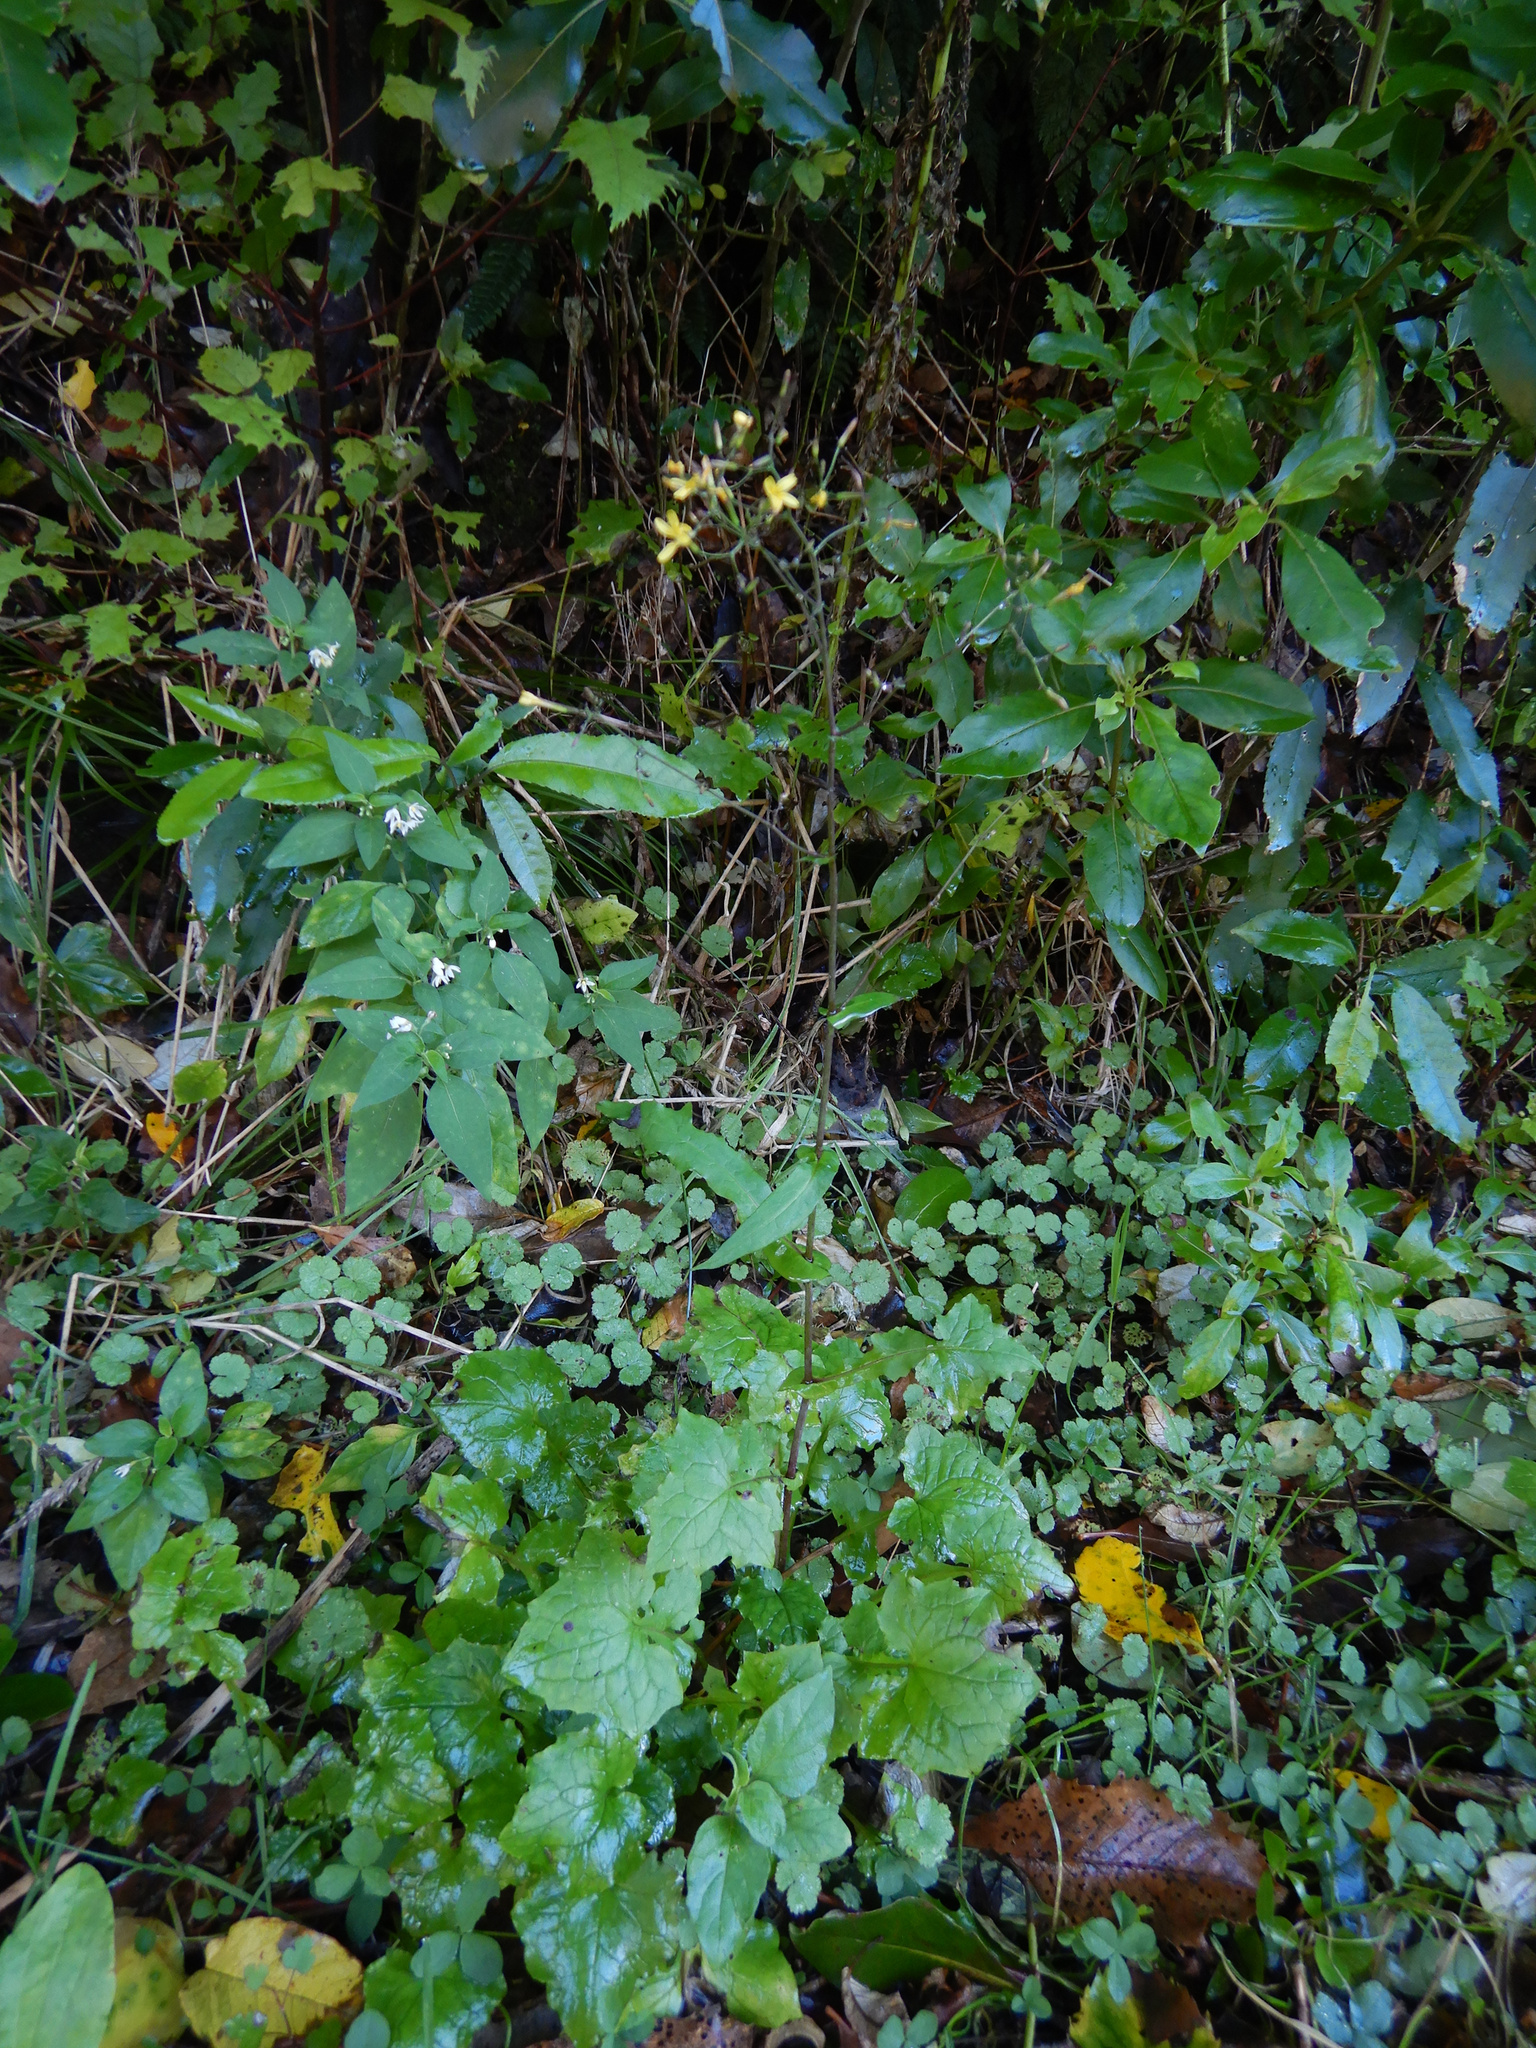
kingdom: Plantae
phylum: Tracheophyta
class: Magnoliopsida
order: Solanales
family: Solanaceae
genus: Solanum
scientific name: Solanum chenopodioides
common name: Tall nightshade
